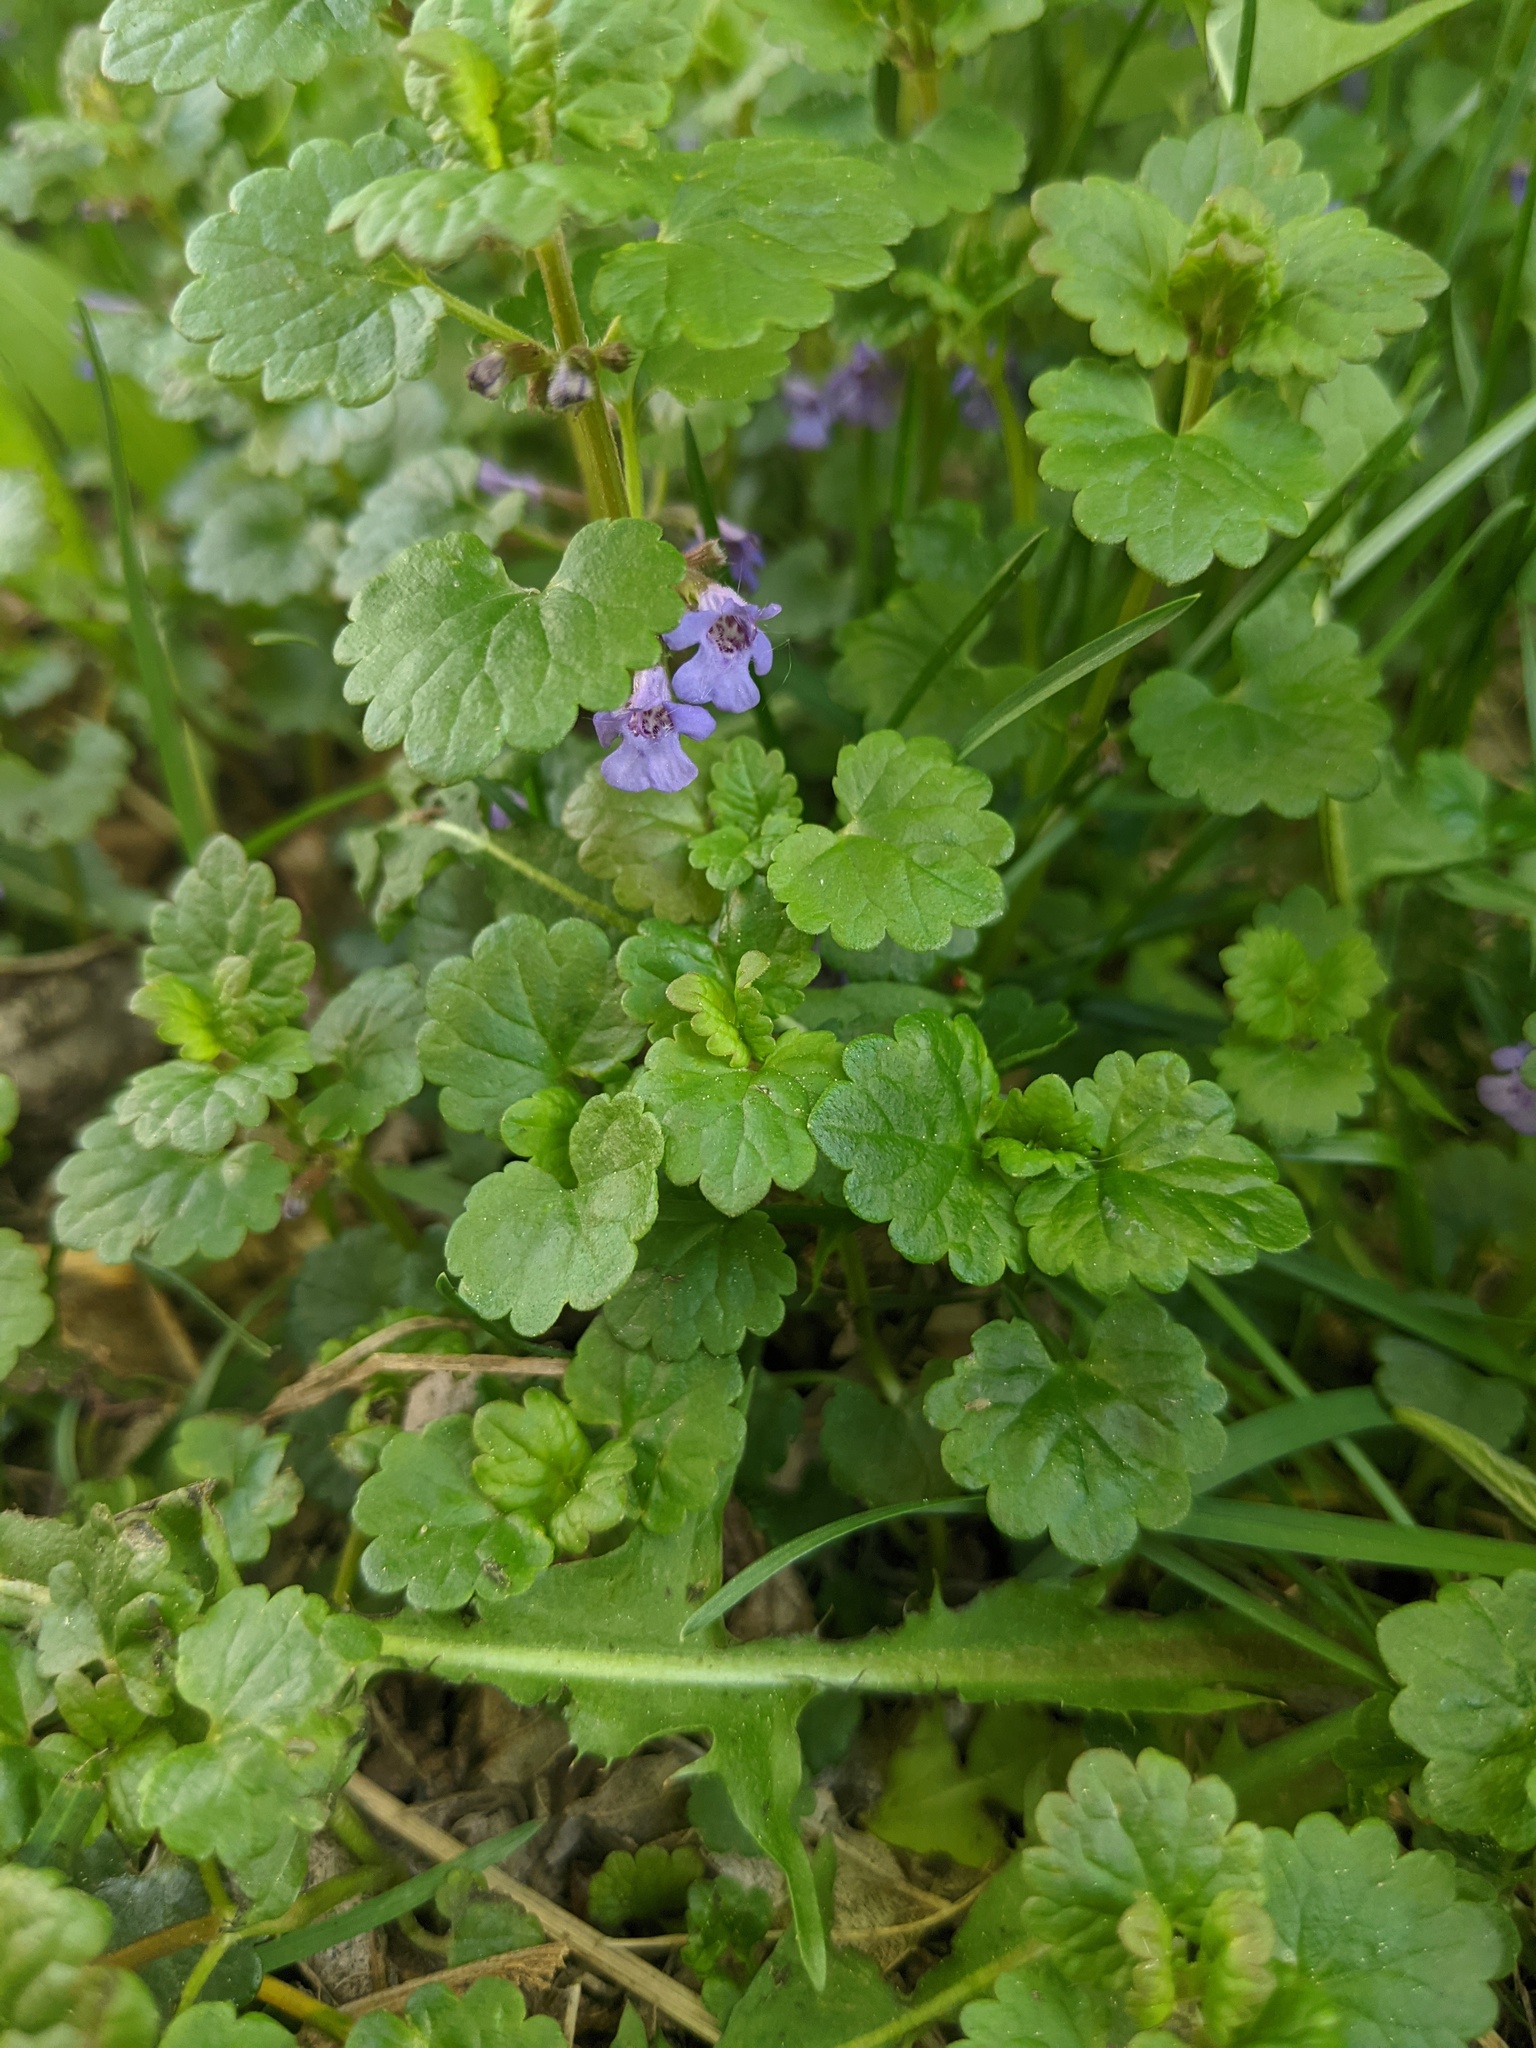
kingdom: Plantae
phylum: Tracheophyta
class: Magnoliopsida
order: Lamiales
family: Lamiaceae
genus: Glechoma
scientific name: Glechoma hederacea
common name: Ground ivy
